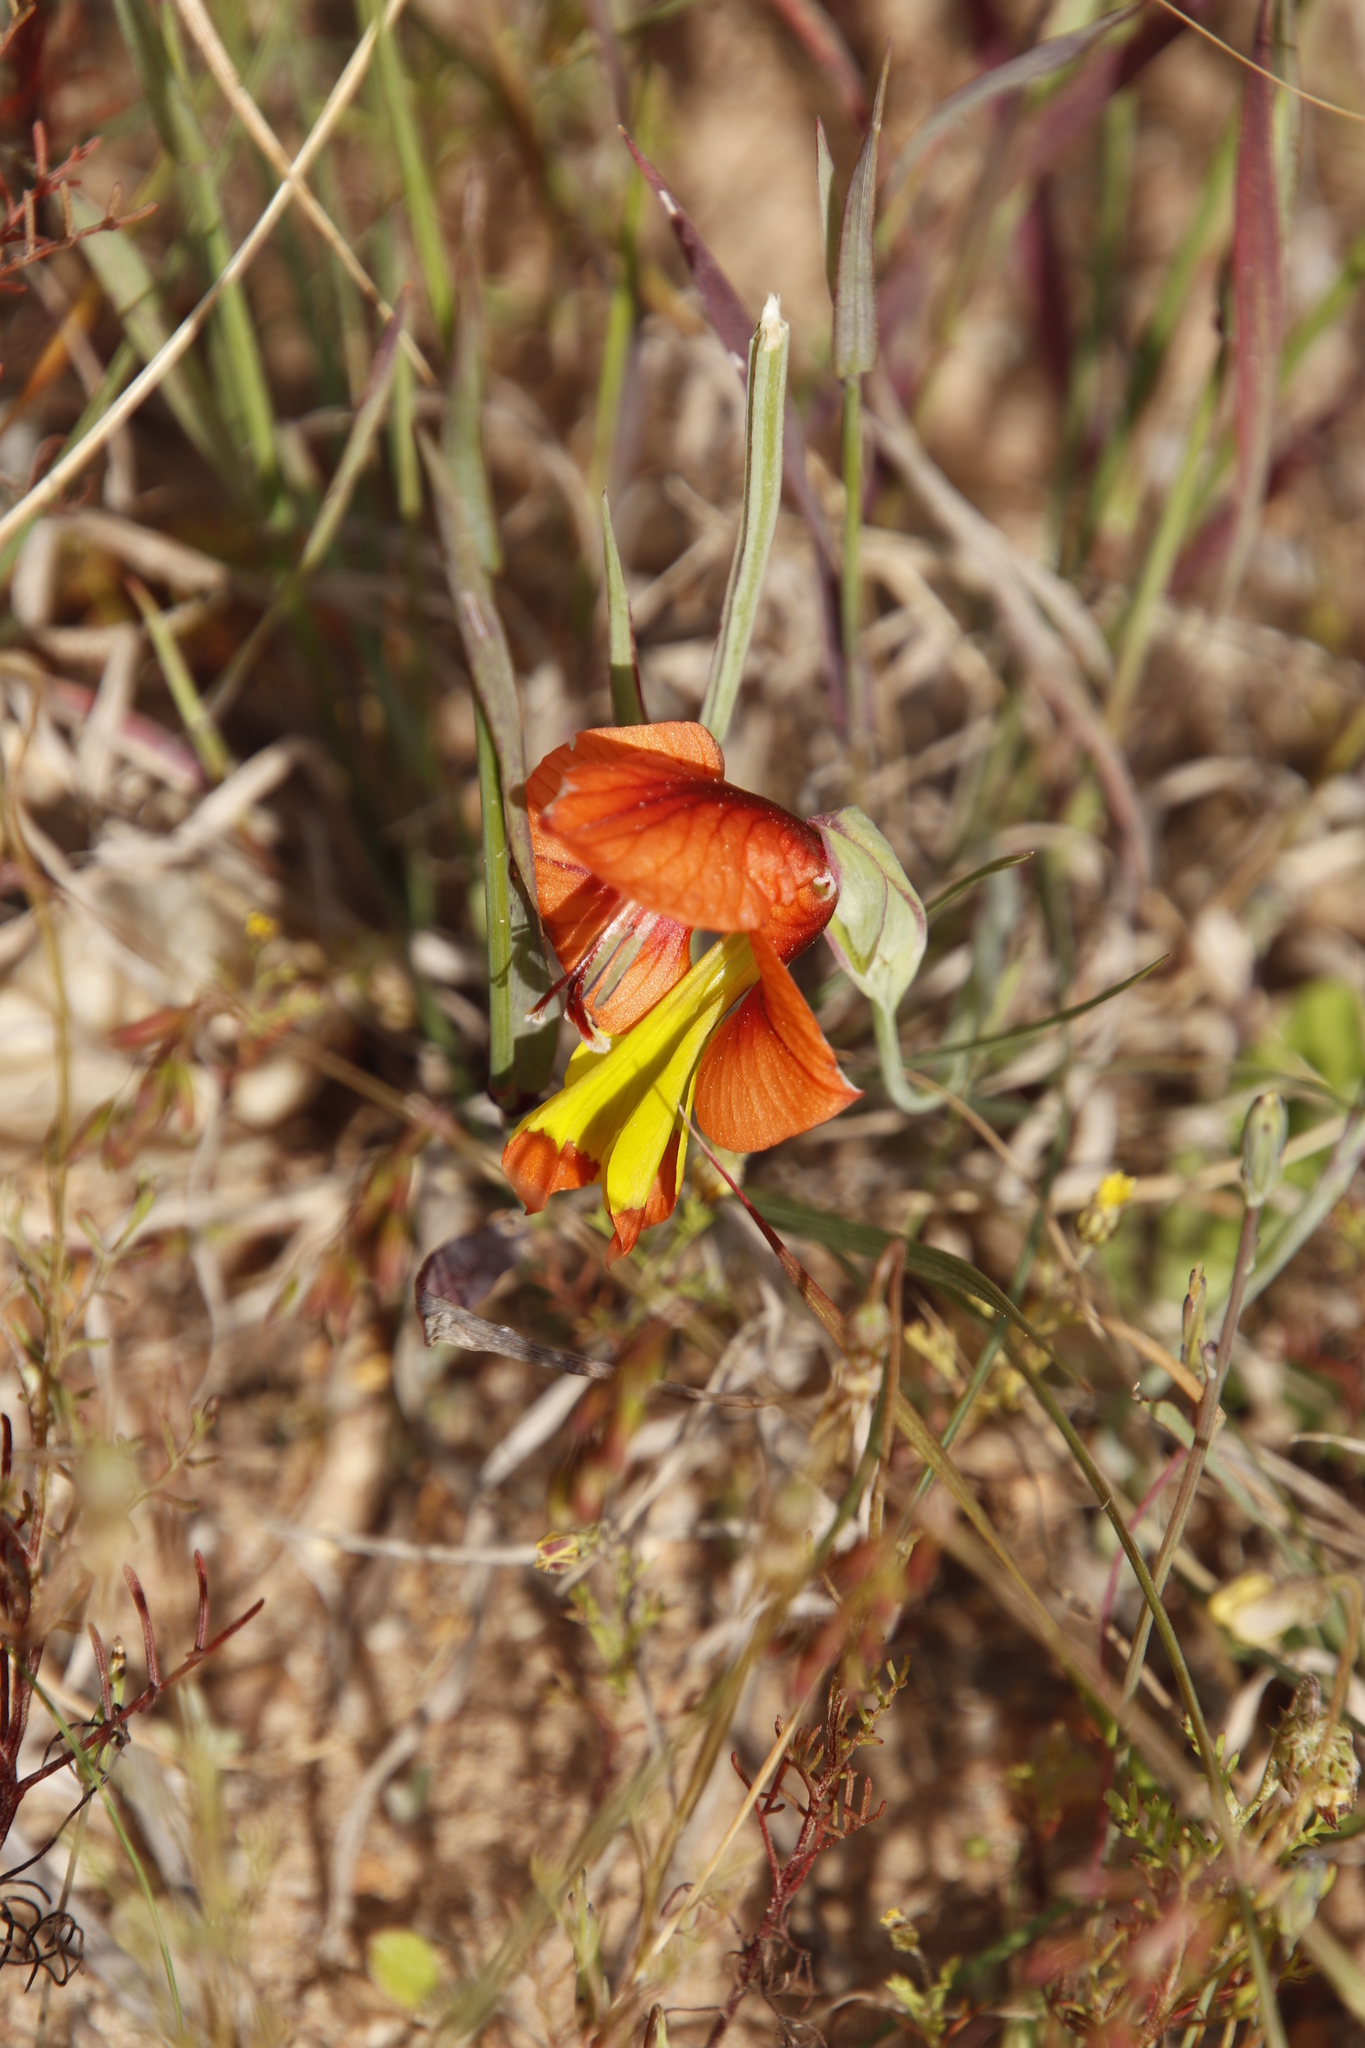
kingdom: Plantae
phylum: Tracheophyta
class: Liliopsida
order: Asparagales
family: Iridaceae
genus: Gladiolus
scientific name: Gladiolus alatus
